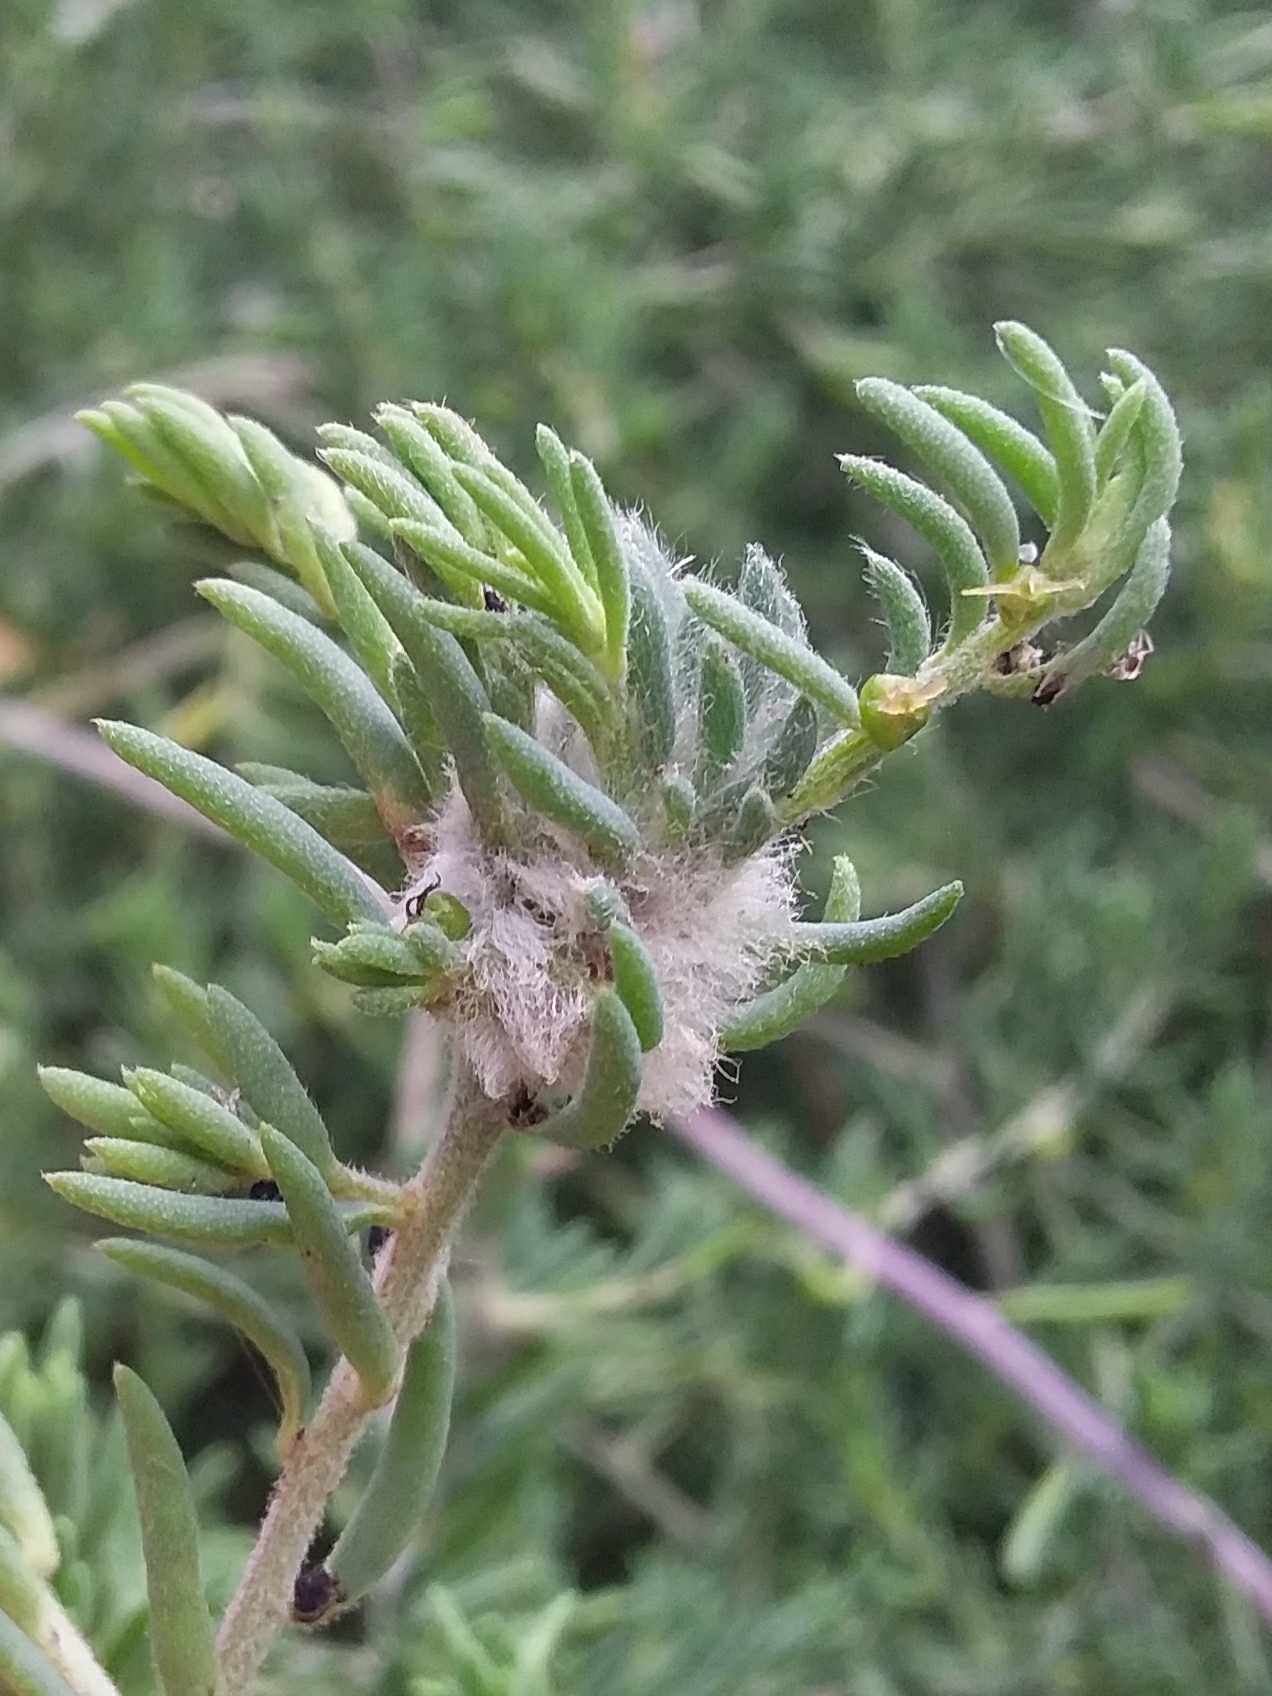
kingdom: Animalia
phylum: Arthropoda
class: Insecta
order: Diptera
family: Cecidomyiidae
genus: Asphondylia
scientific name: Asphondylia tonsura
